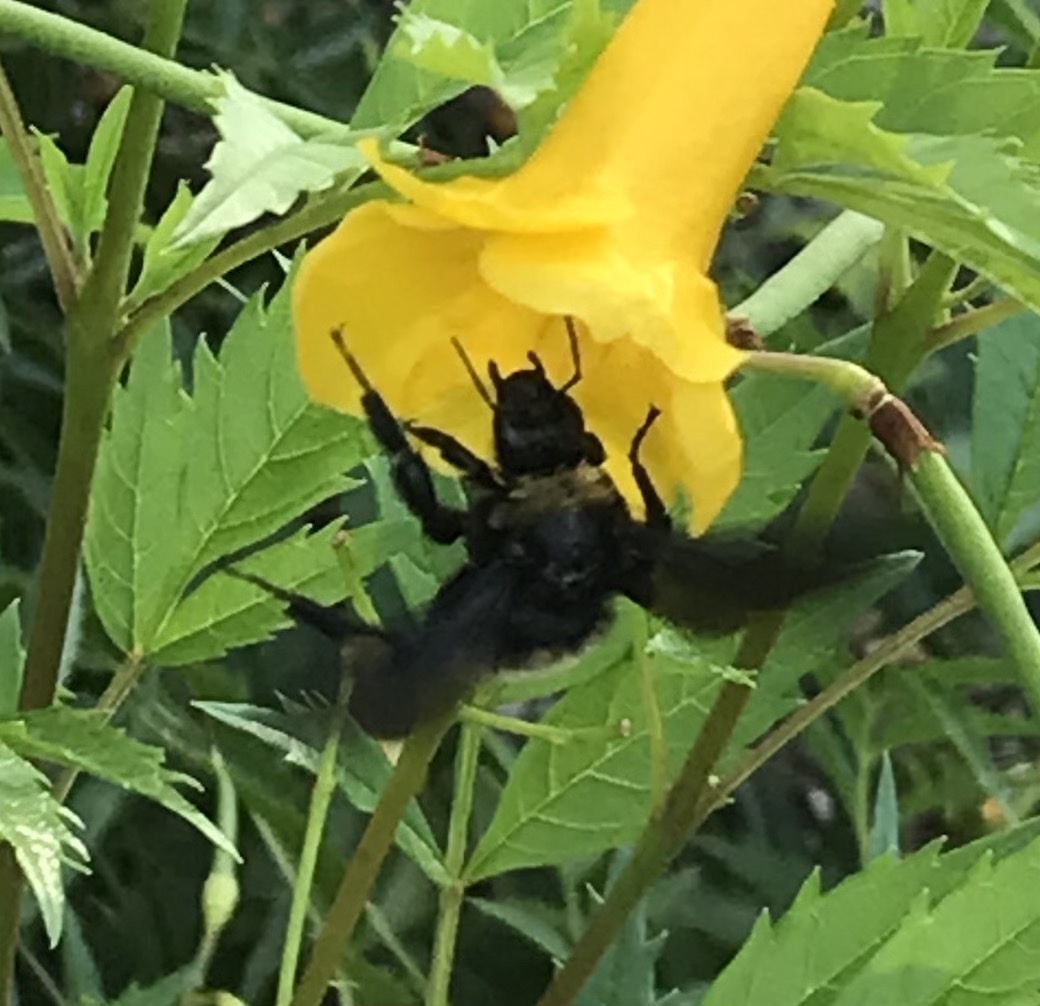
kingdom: Animalia
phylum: Arthropoda
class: Insecta
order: Hymenoptera
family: Apidae
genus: Bombus
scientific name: Bombus pensylvanicus
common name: Bumble bee
